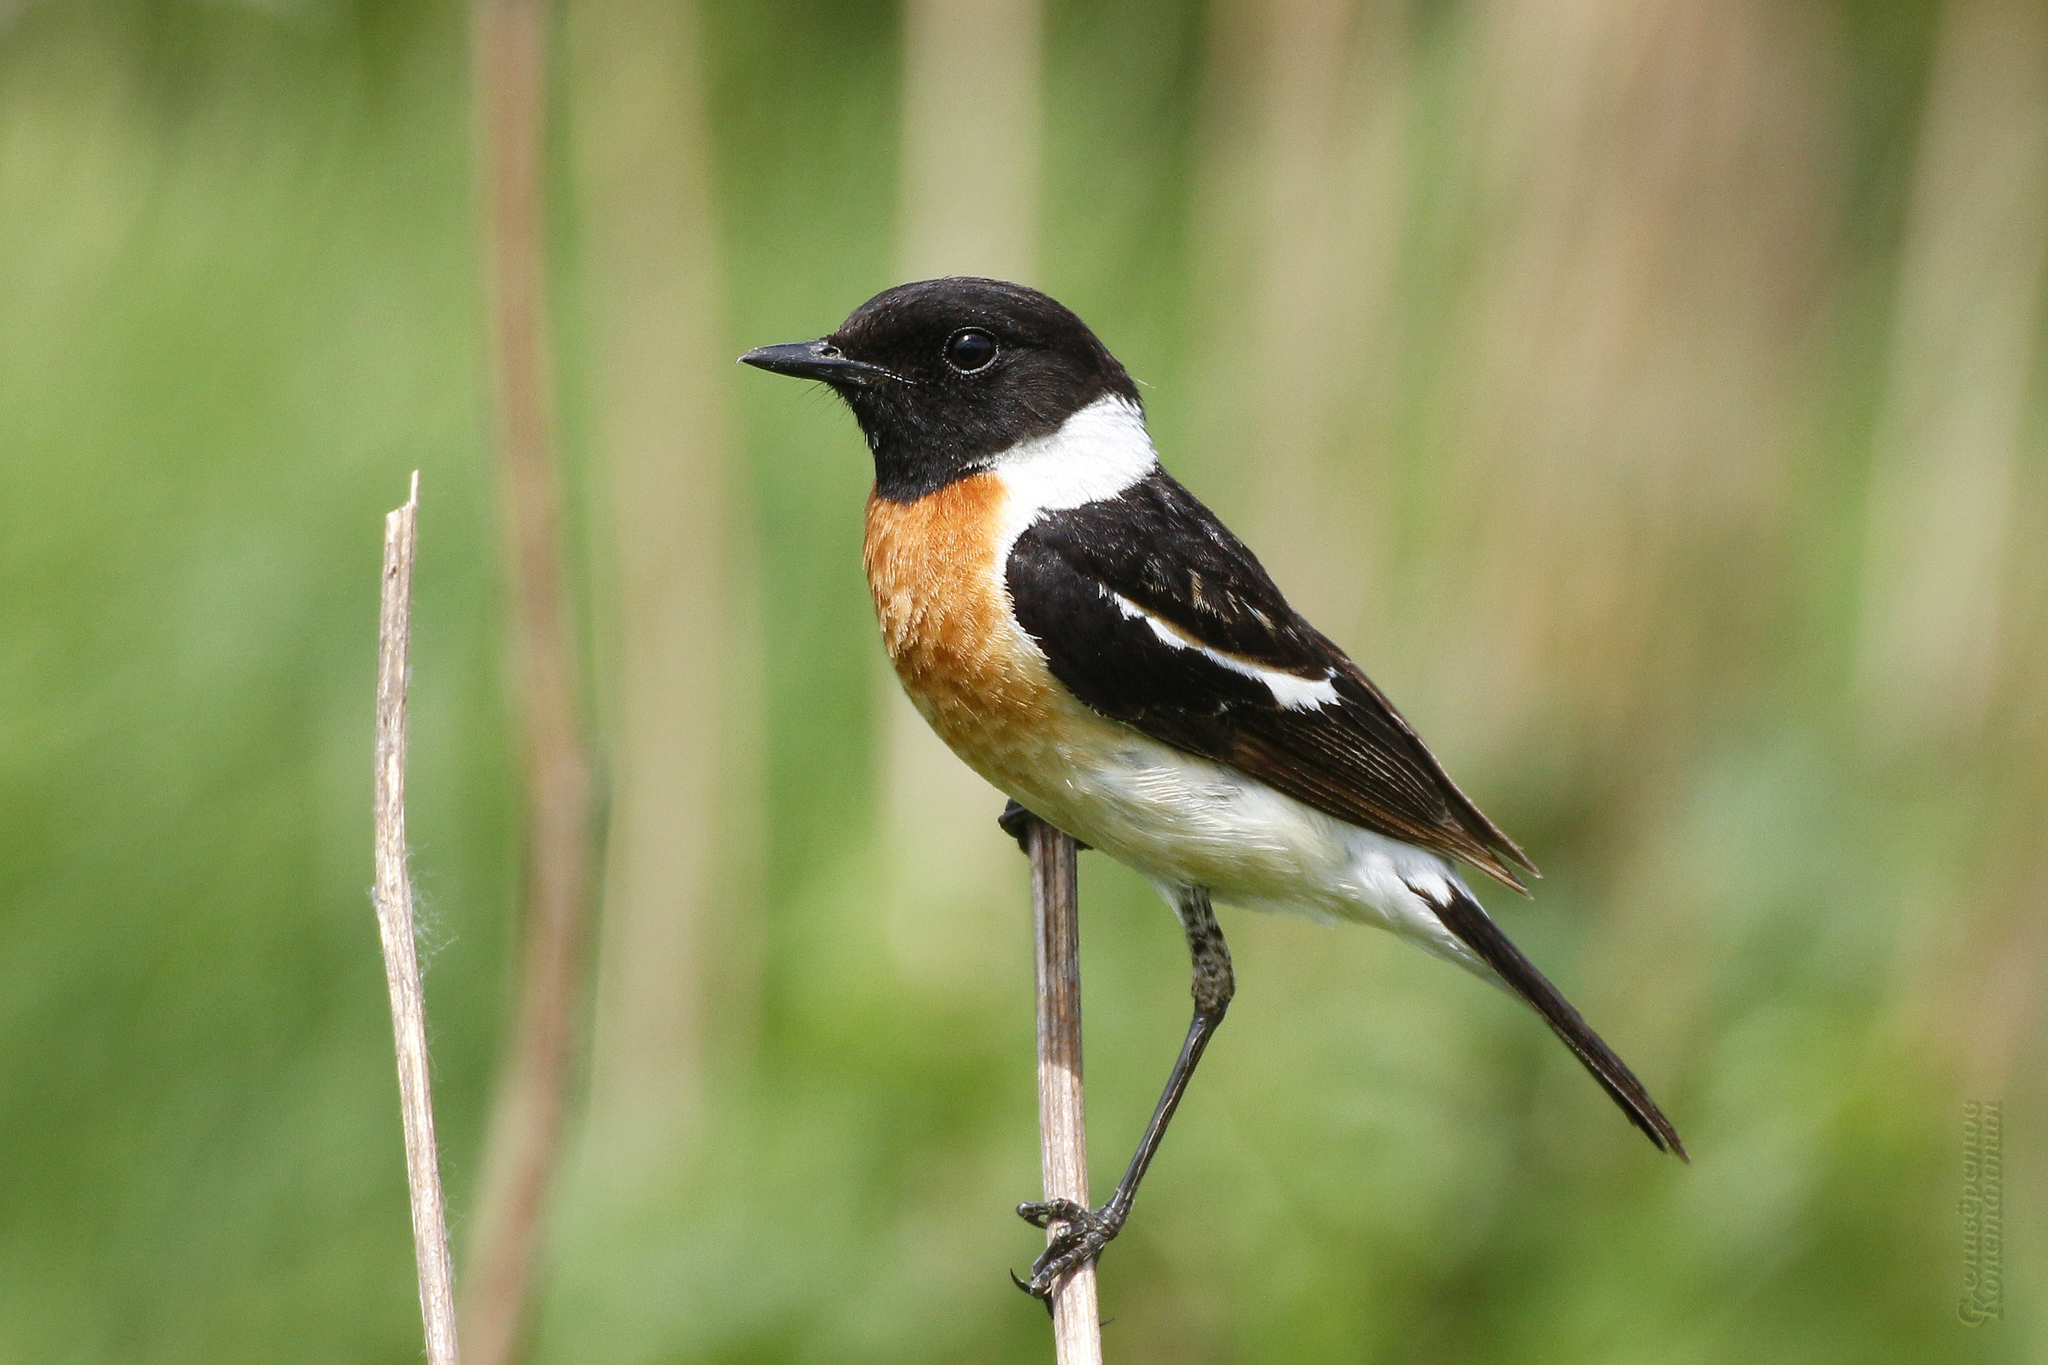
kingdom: Animalia
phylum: Chordata
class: Aves
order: Passeriformes
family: Muscicapidae
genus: Saxicola
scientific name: Saxicola maurus
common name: Siberian stonechat
